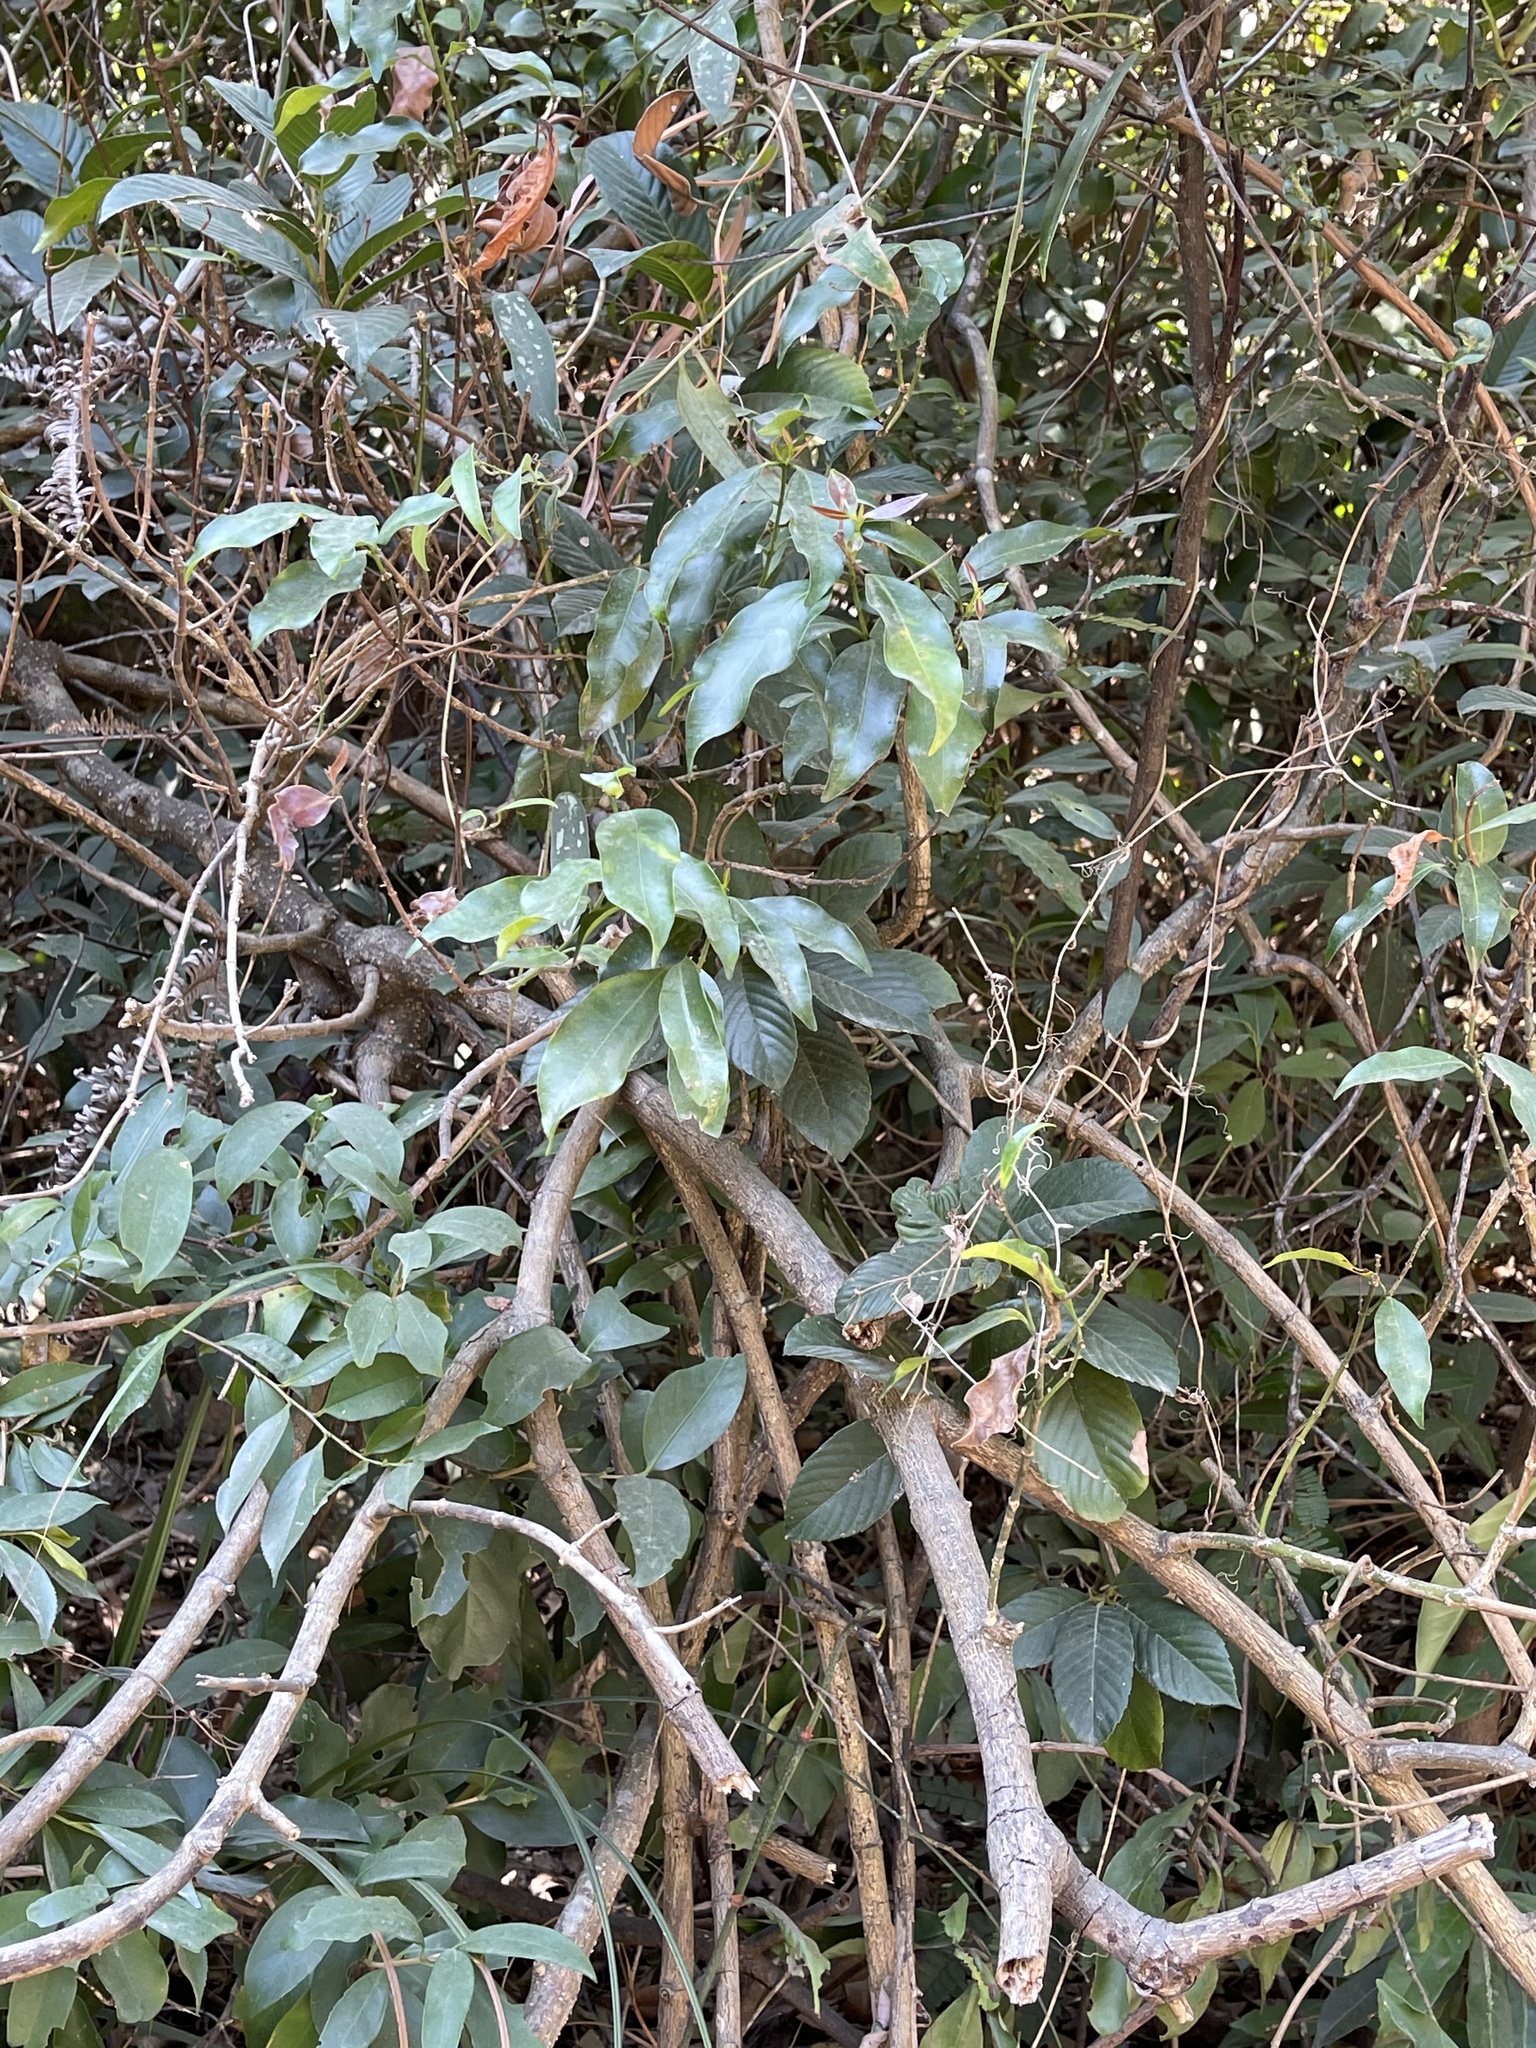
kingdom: Plantae
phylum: Tracheophyta
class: Magnoliopsida
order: Dilleniales
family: Dilleniaceae
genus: Tetracera
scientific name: Tetracera sarmentosa
